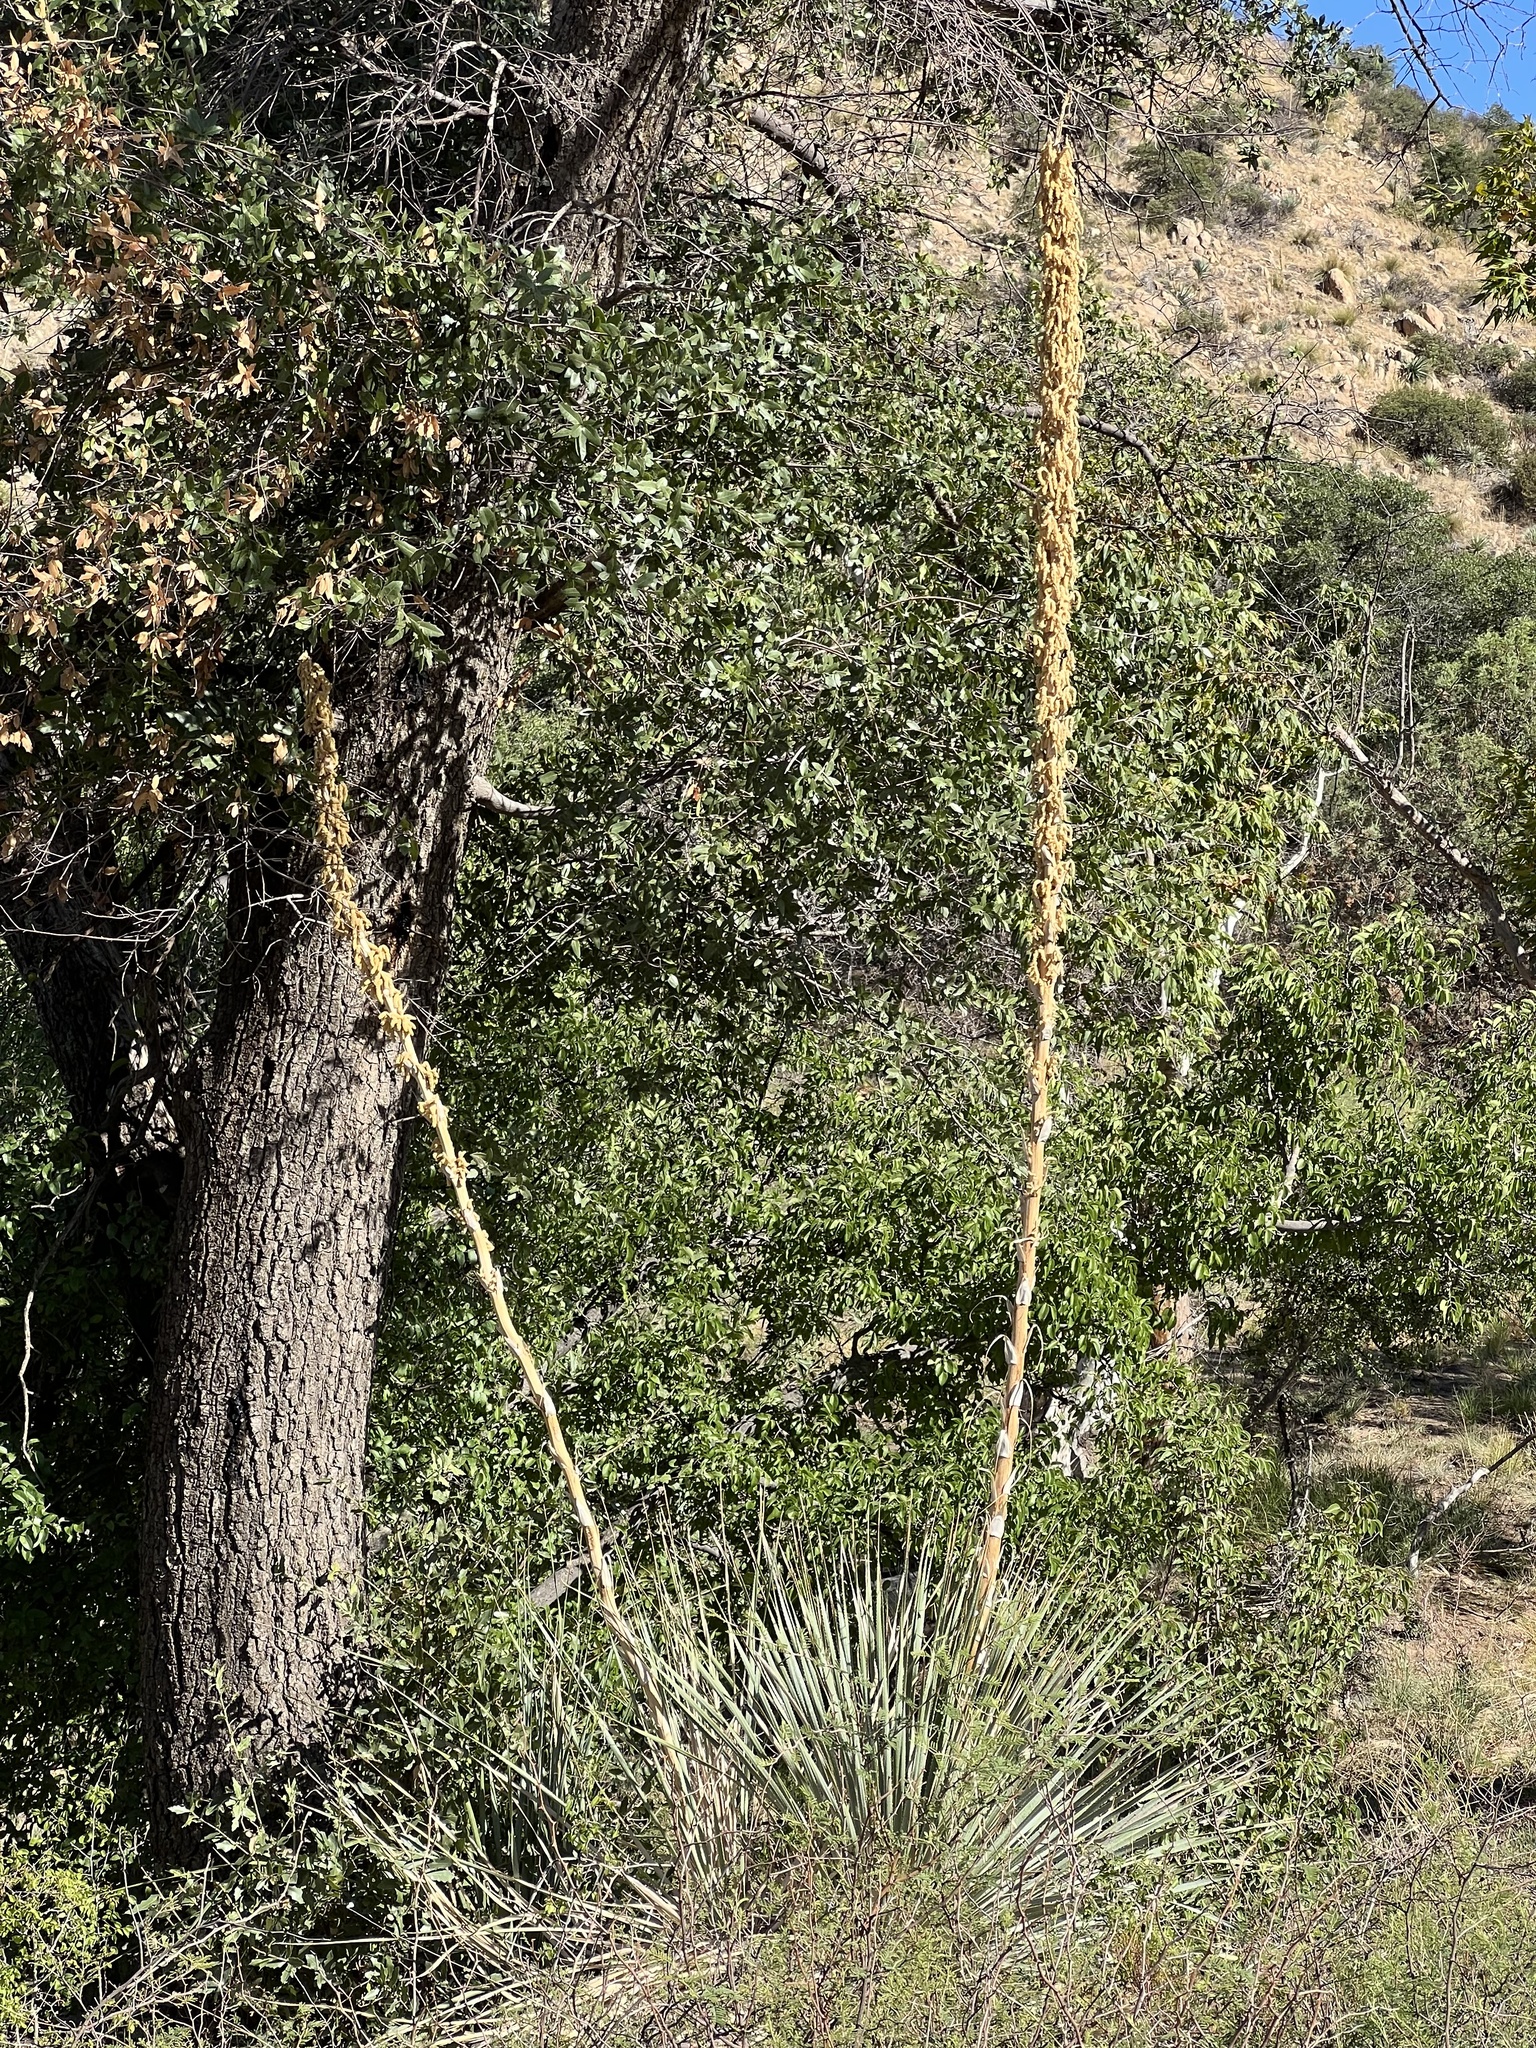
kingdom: Plantae
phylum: Tracheophyta
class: Liliopsida
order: Asparagales
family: Asparagaceae
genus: Dasylirion
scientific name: Dasylirion wheeleri
